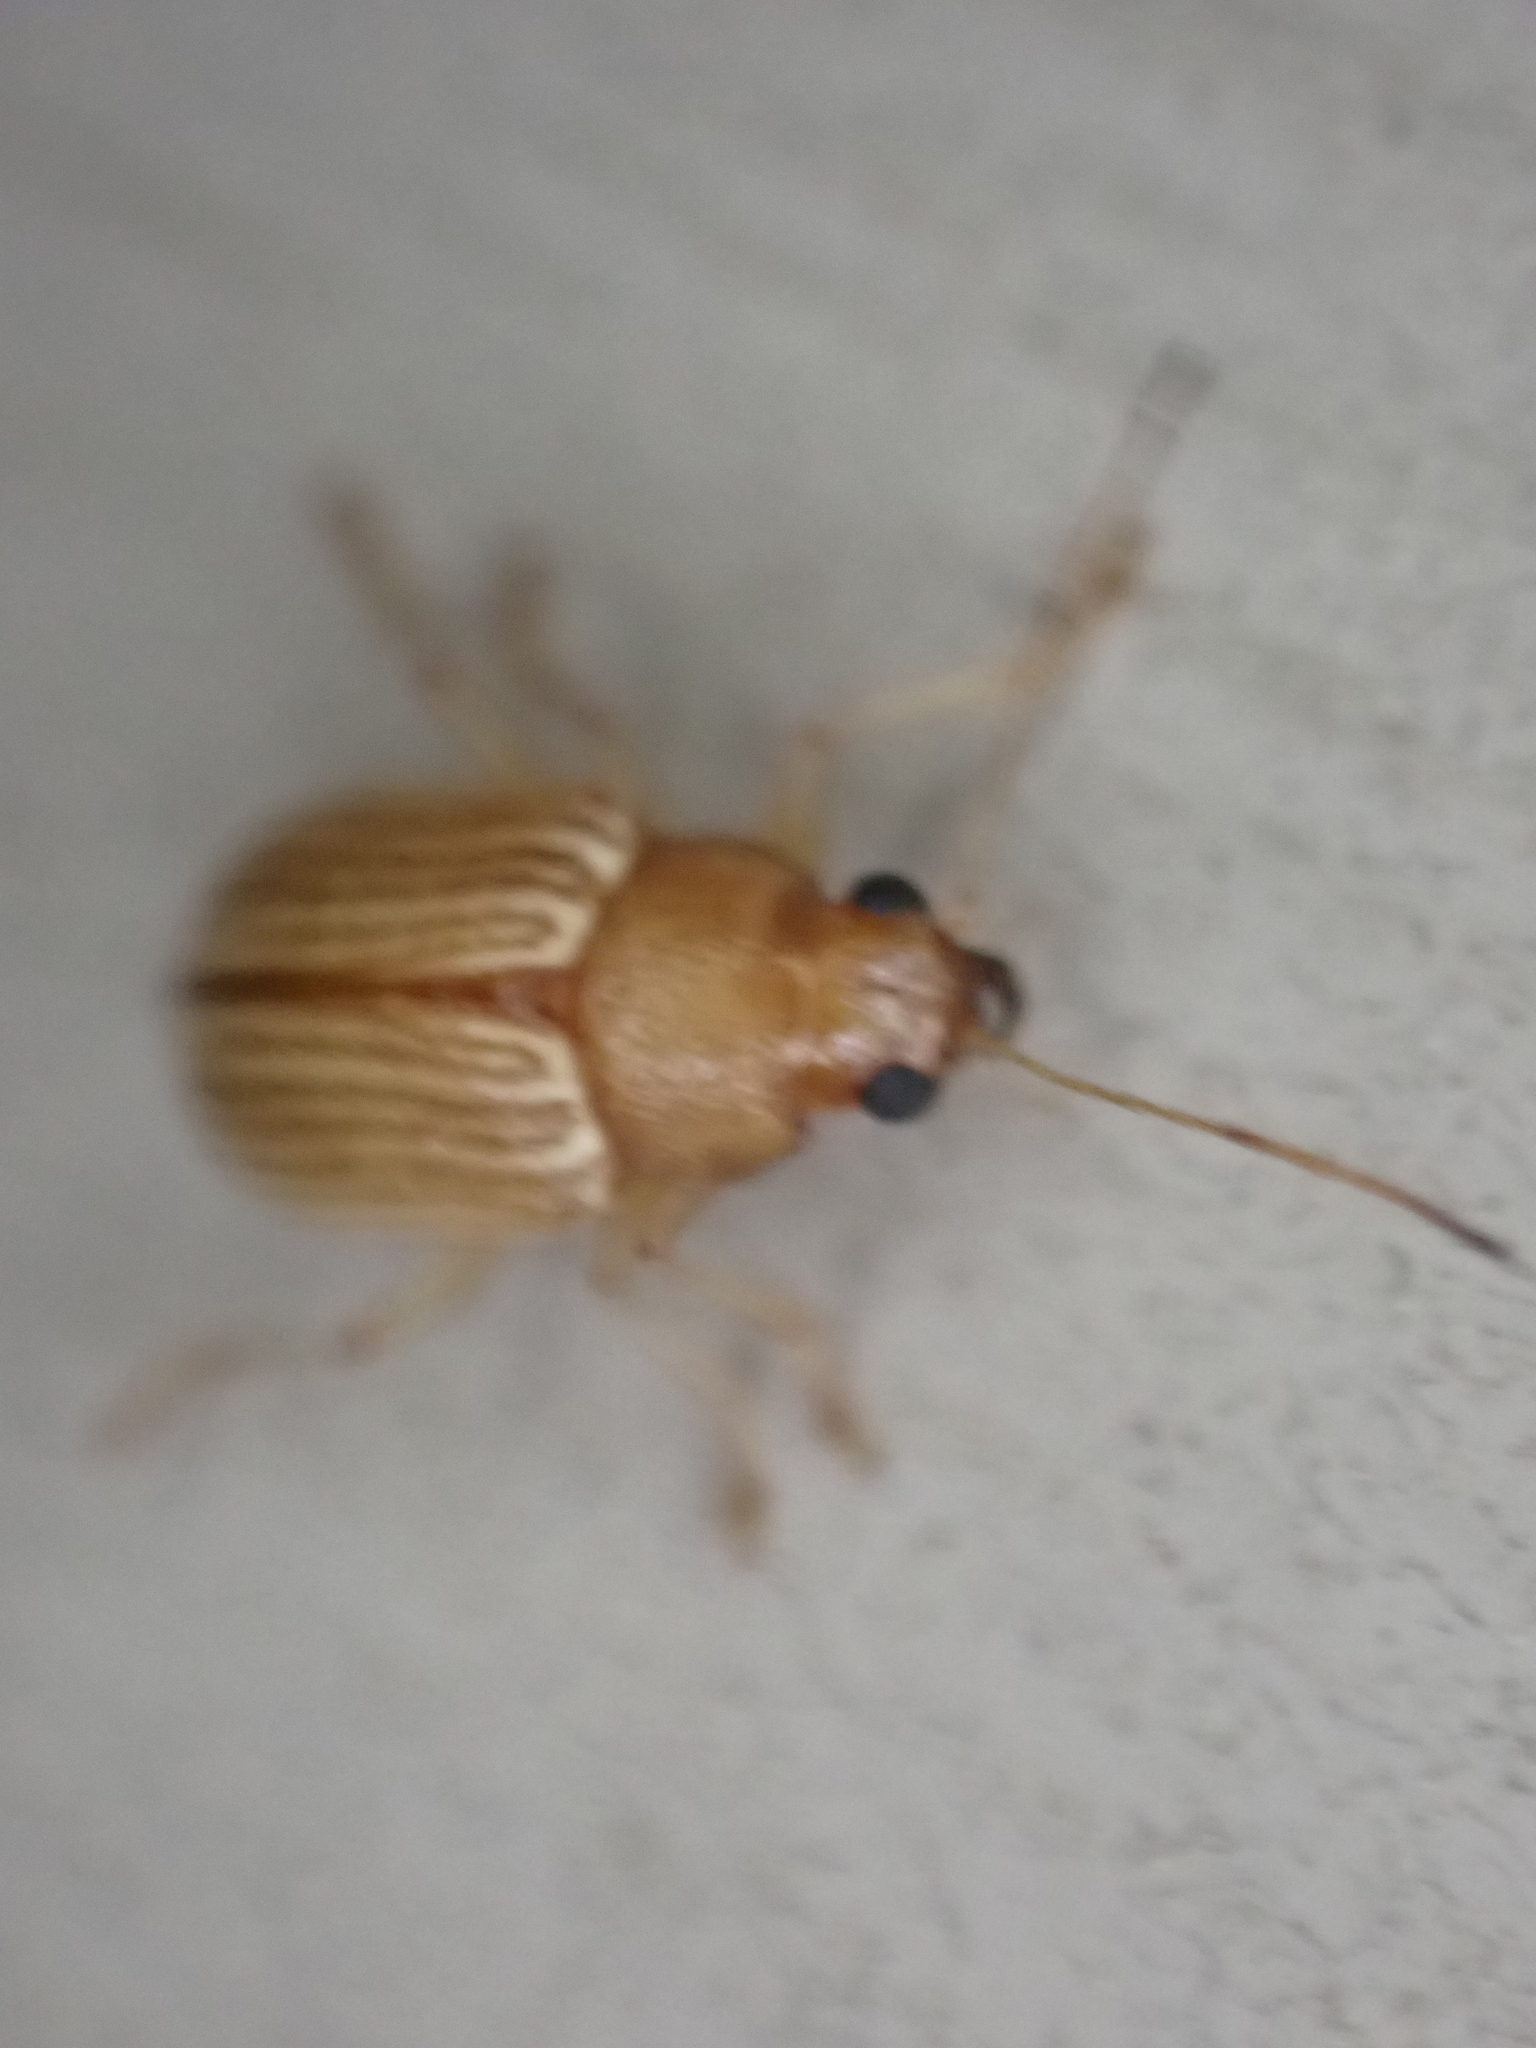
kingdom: Animalia
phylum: Arthropoda
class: Insecta
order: Coleoptera
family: Chrysomelidae
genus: Colaspis
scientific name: Colaspis brunnea
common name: Grape colaspis
